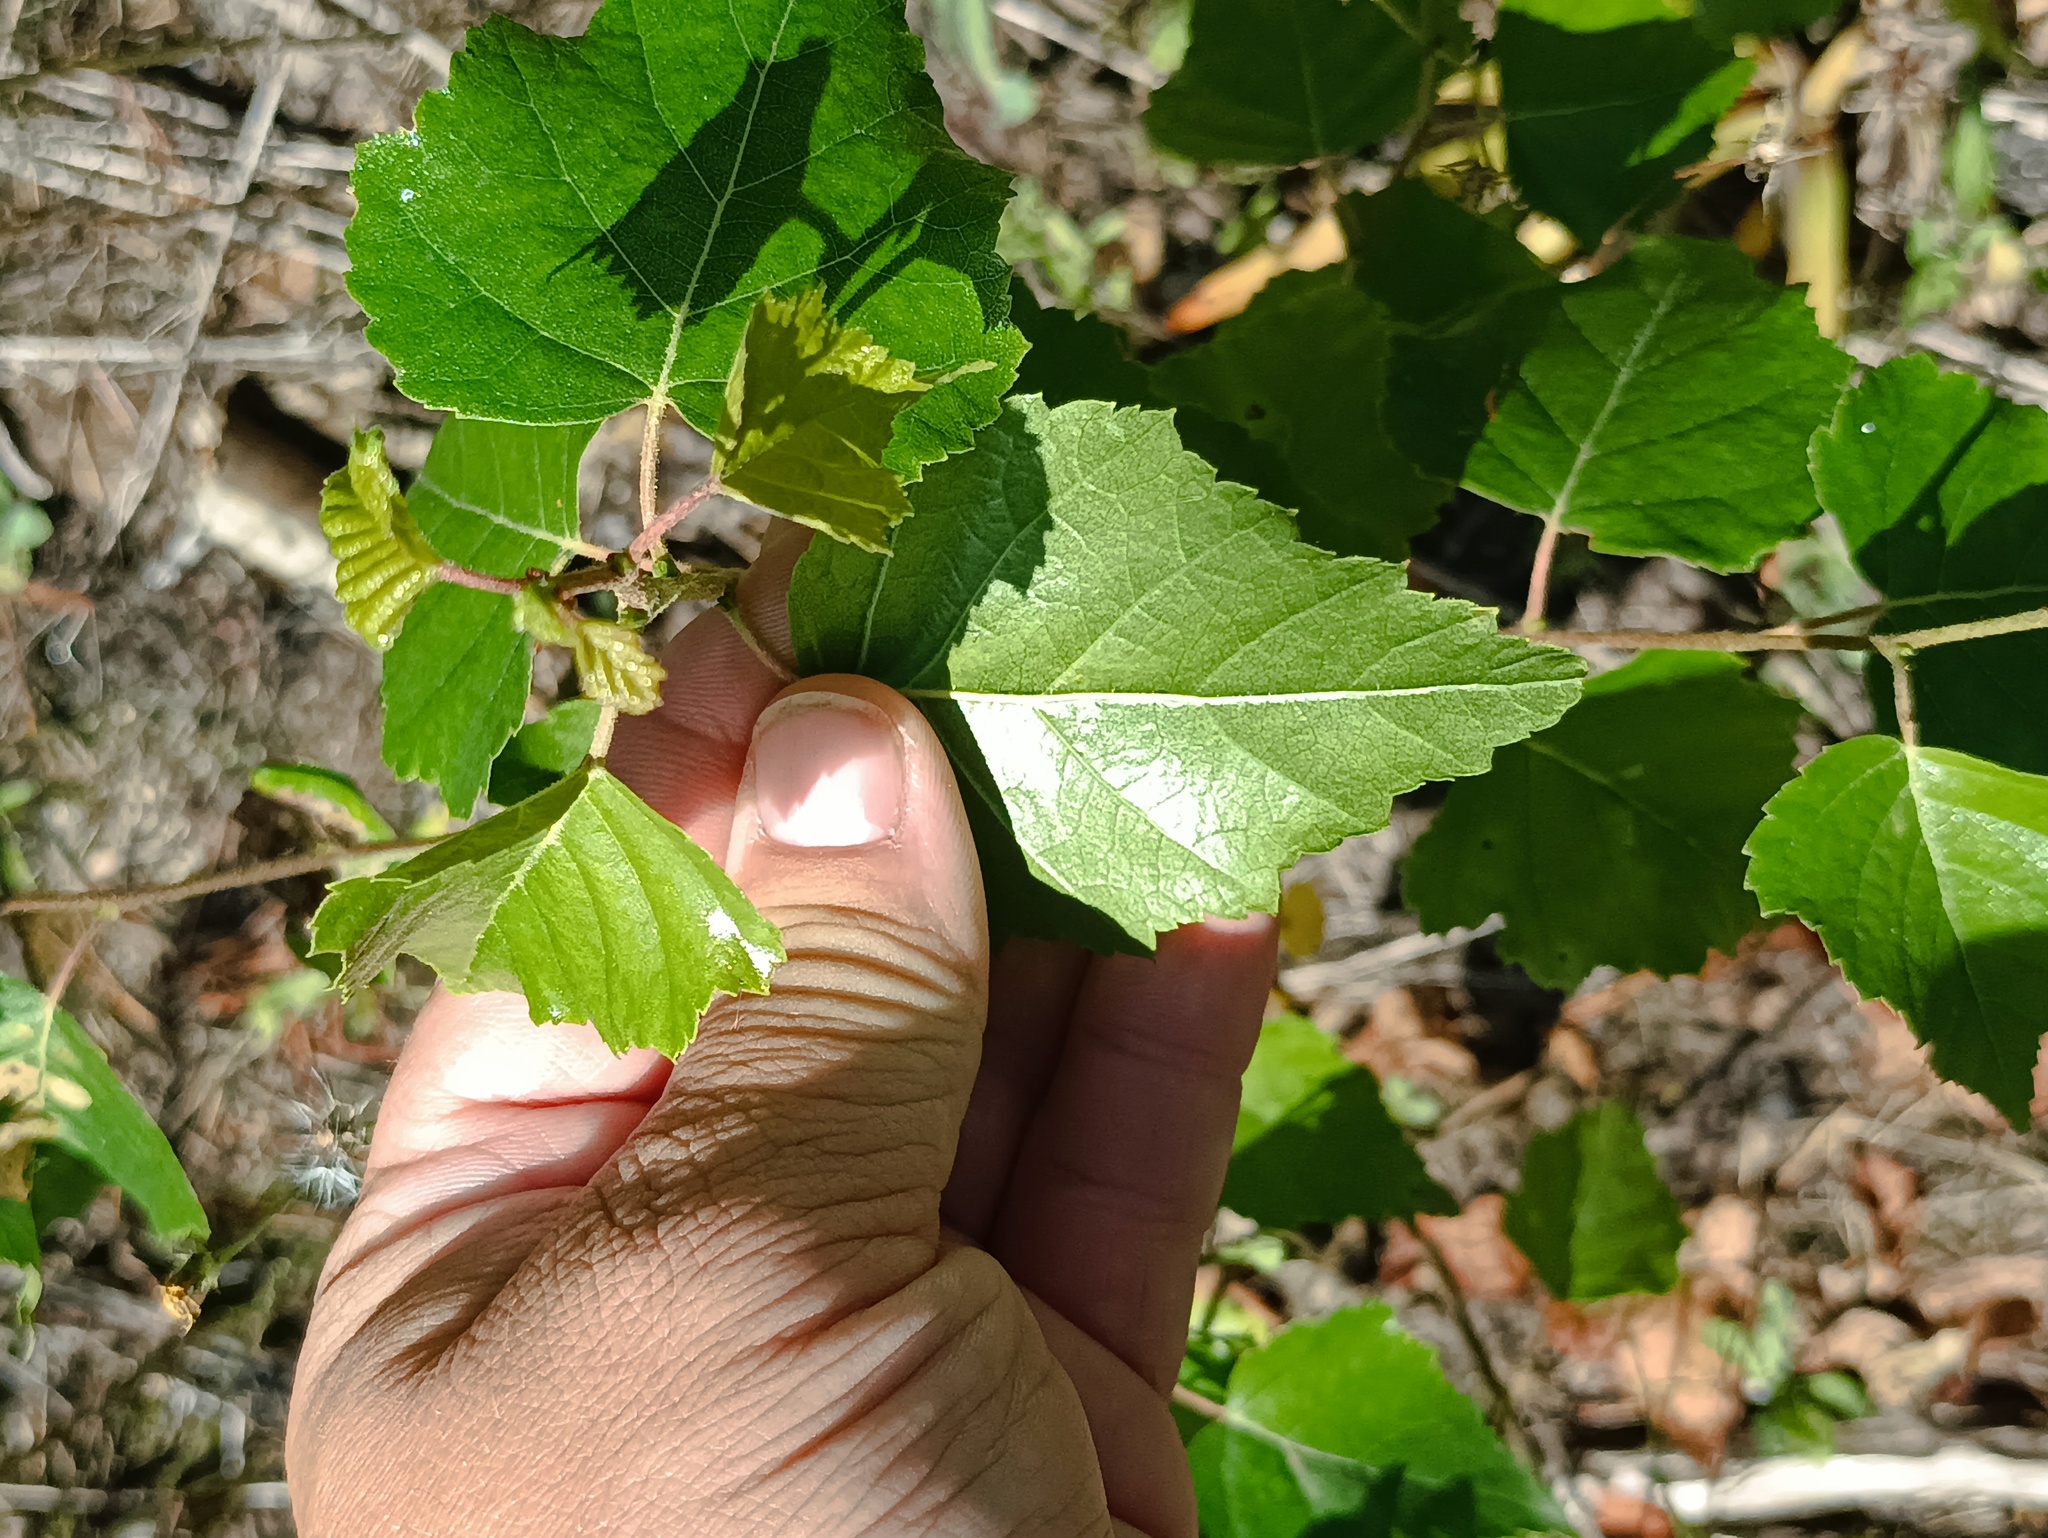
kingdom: Plantae
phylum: Tracheophyta
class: Magnoliopsida
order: Fagales
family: Betulaceae
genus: Betula
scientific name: Betula pendula
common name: Silver birch
